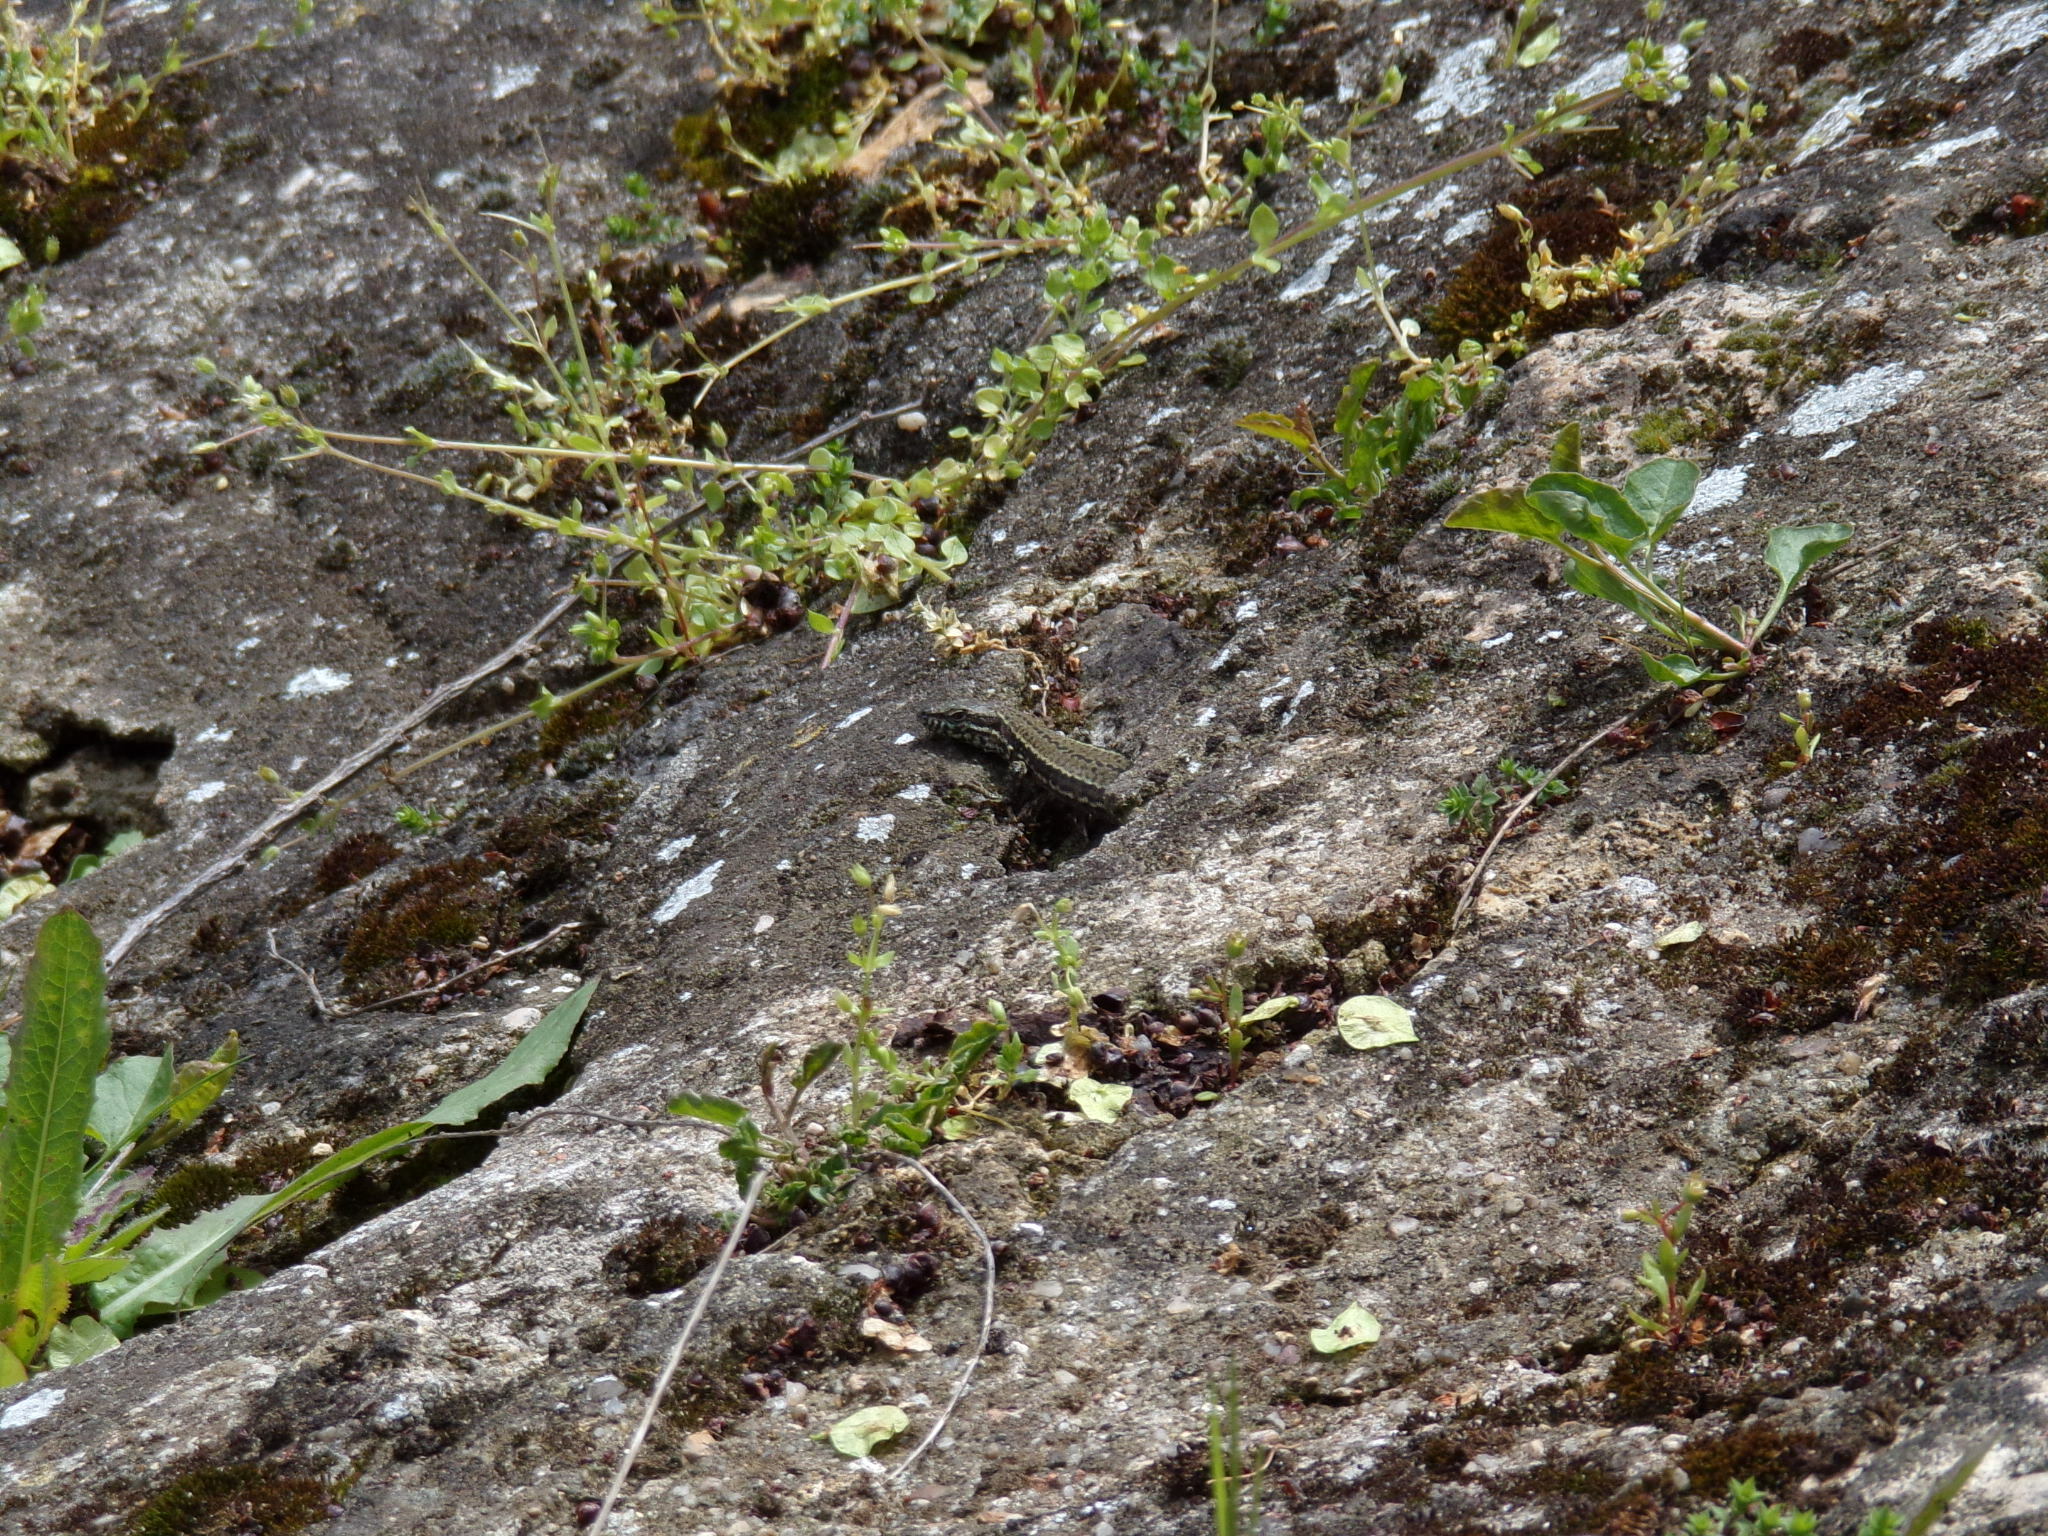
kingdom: Animalia
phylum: Chordata
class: Squamata
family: Lacertidae
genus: Podarcis
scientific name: Podarcis muralis
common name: Common wall lizard
